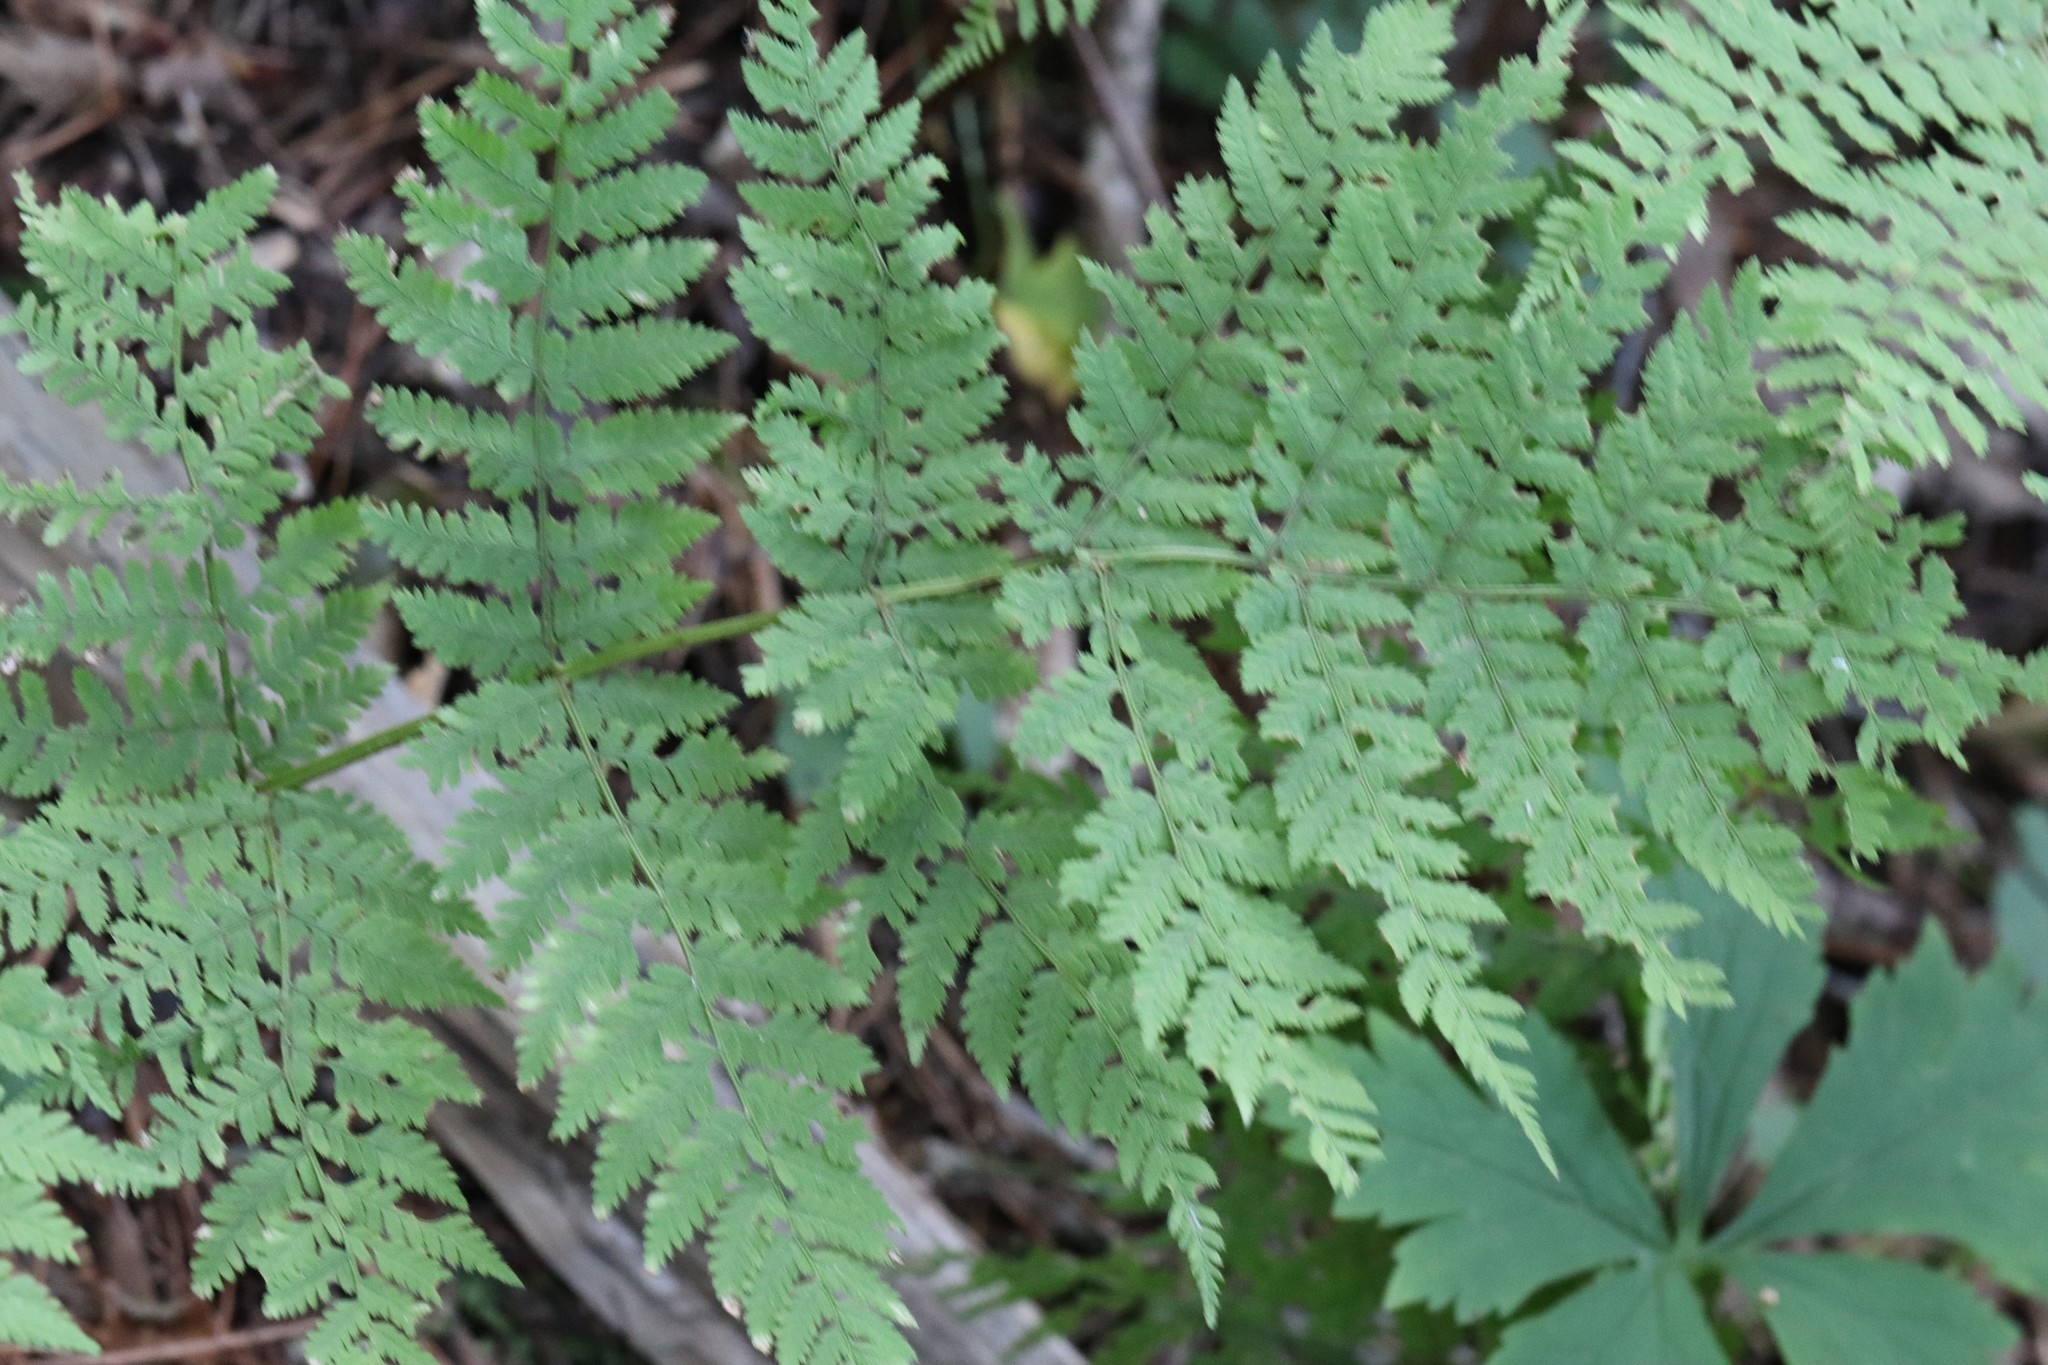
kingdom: Plantae
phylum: Tracheophyta
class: Polypodiopsida
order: Polypodiales
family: Dryopteridaceae
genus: Dryopteris
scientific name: Dryopteris expansa
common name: Northern buckler fern
